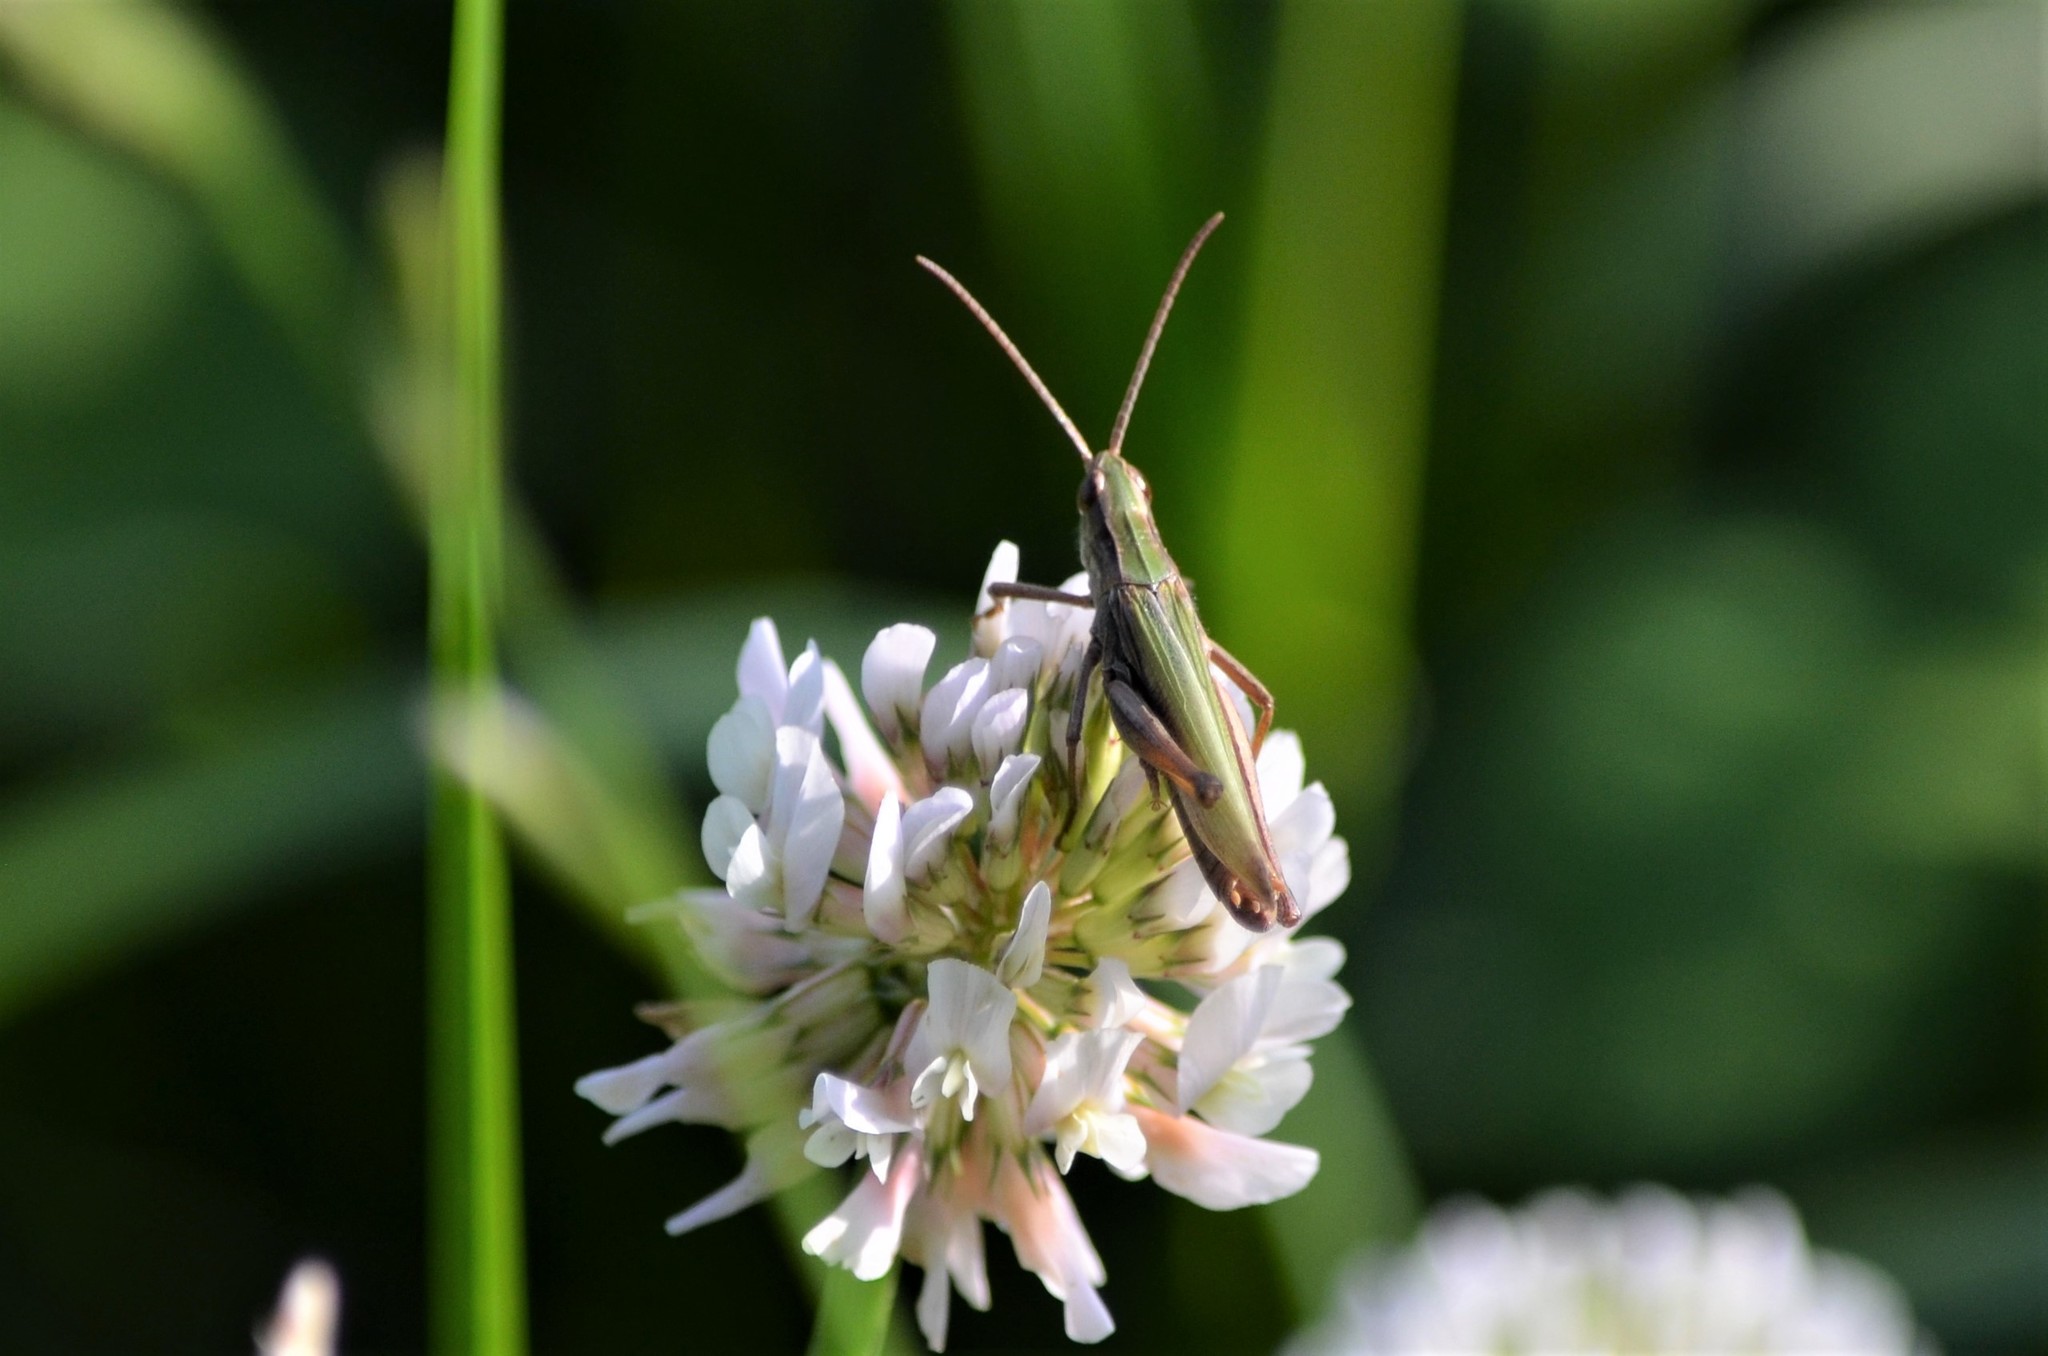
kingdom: Animalia
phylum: Arthropoda
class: Insecta
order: Orthoptera
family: Acrididae
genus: Chorthippus
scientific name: Chorthippus dorsatus
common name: Steppe grasshopper
